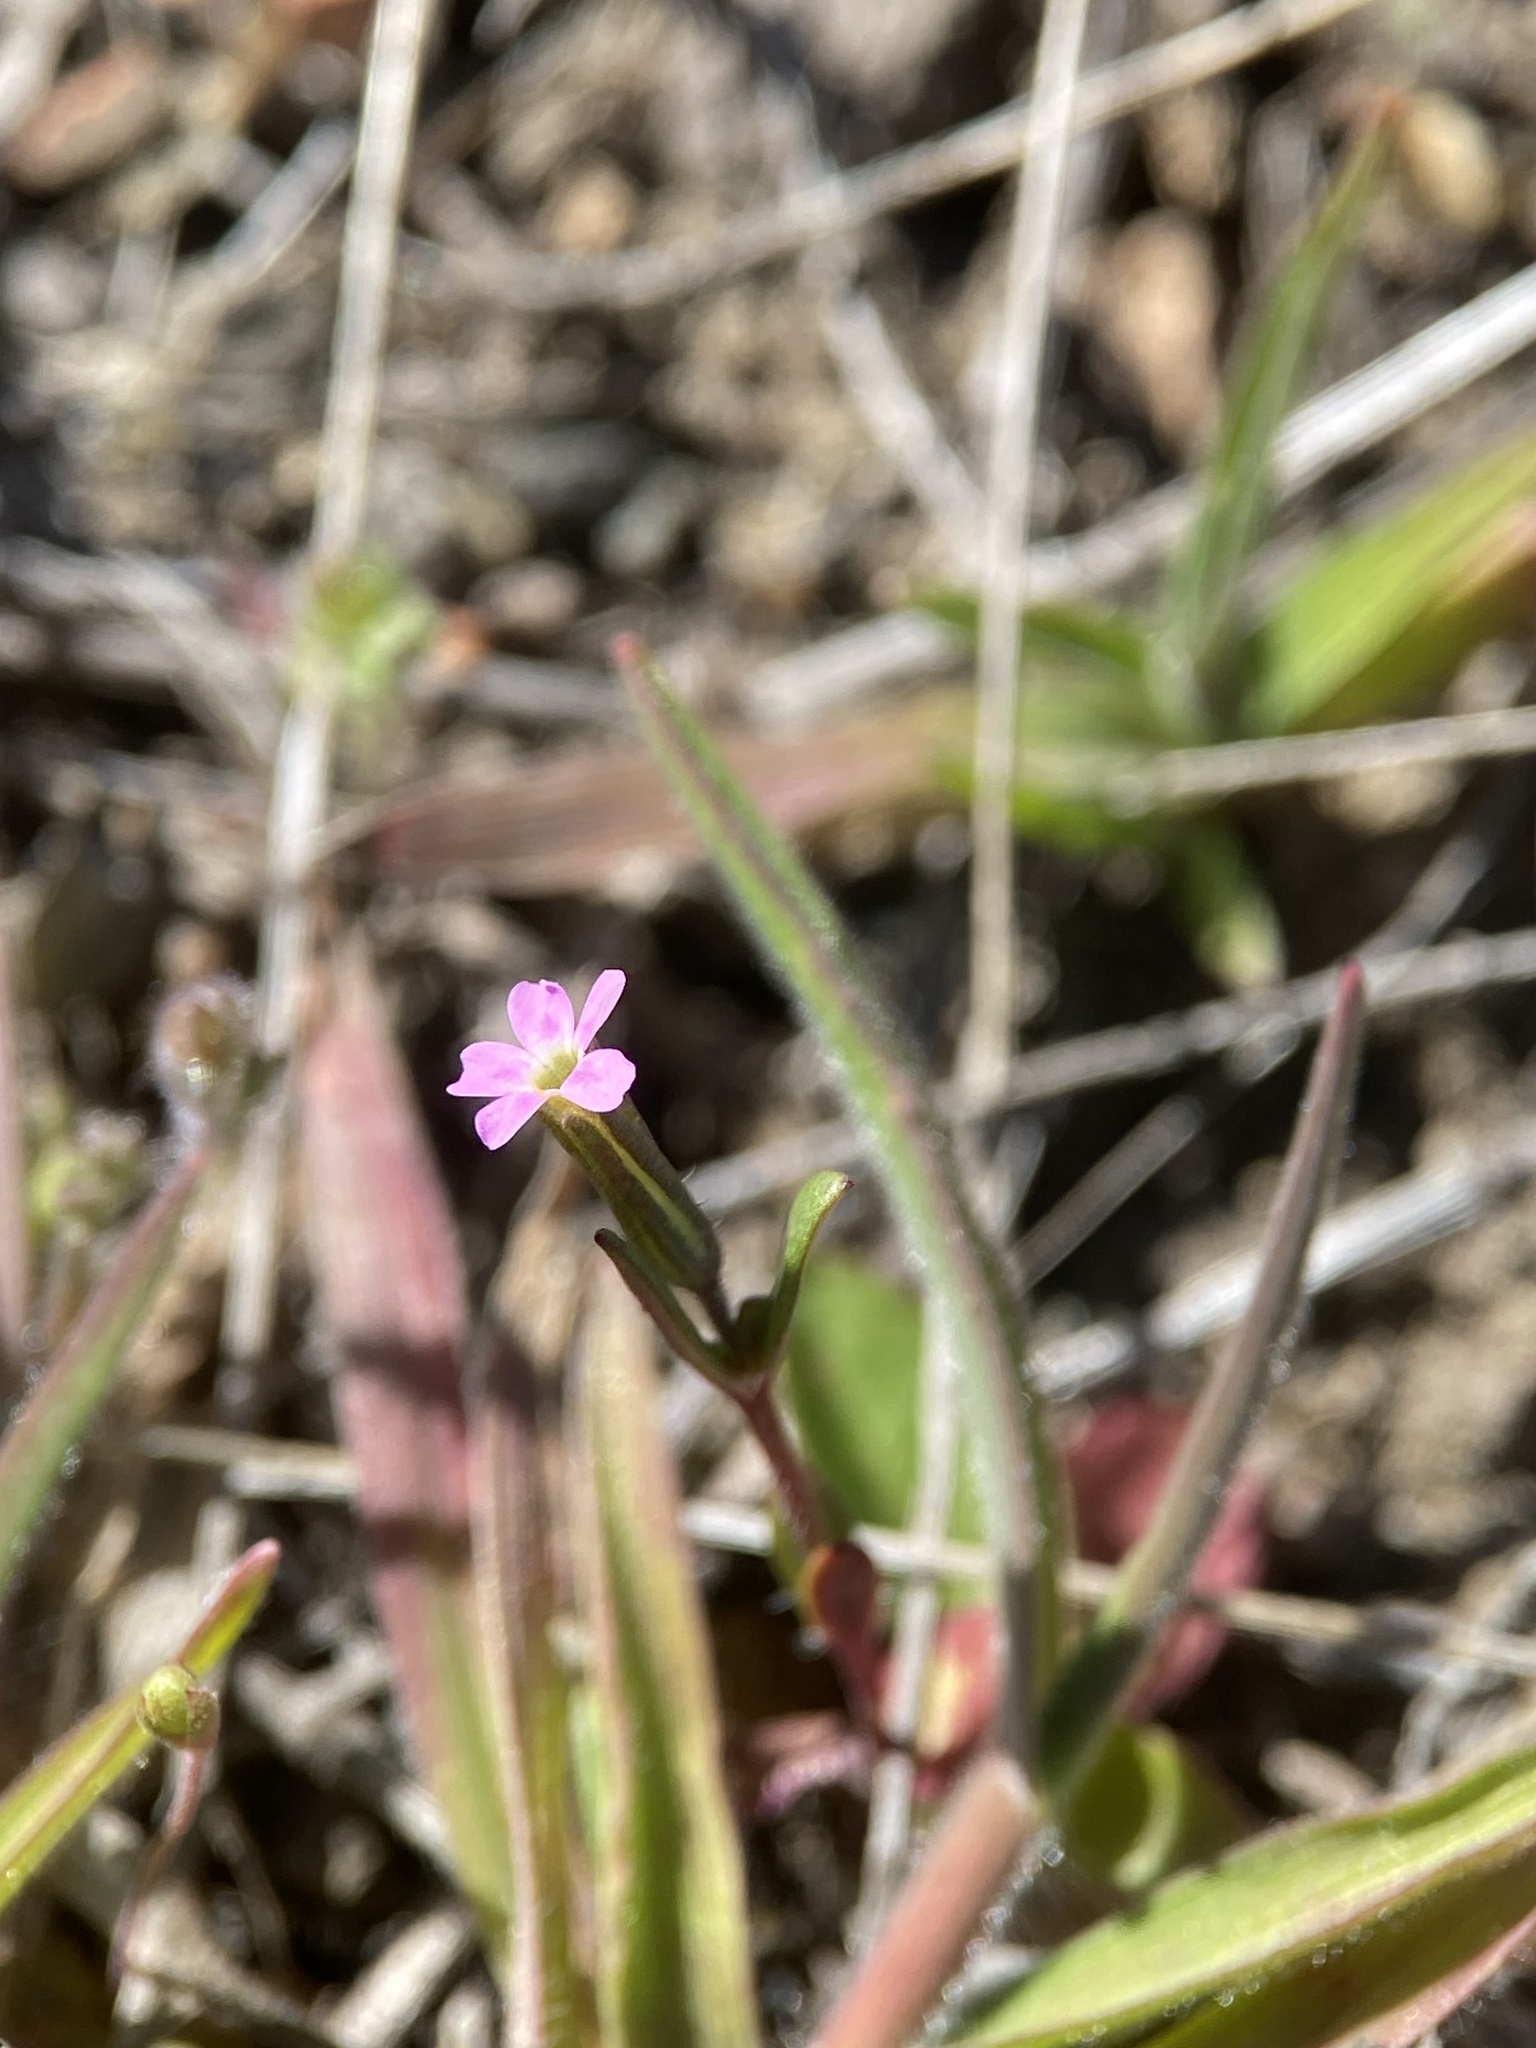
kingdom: Plantae
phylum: Tracheophyta
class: Magnoliopsida
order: Ericales
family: Polemoniaceae
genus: Phlox
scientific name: Phlox gracilis
